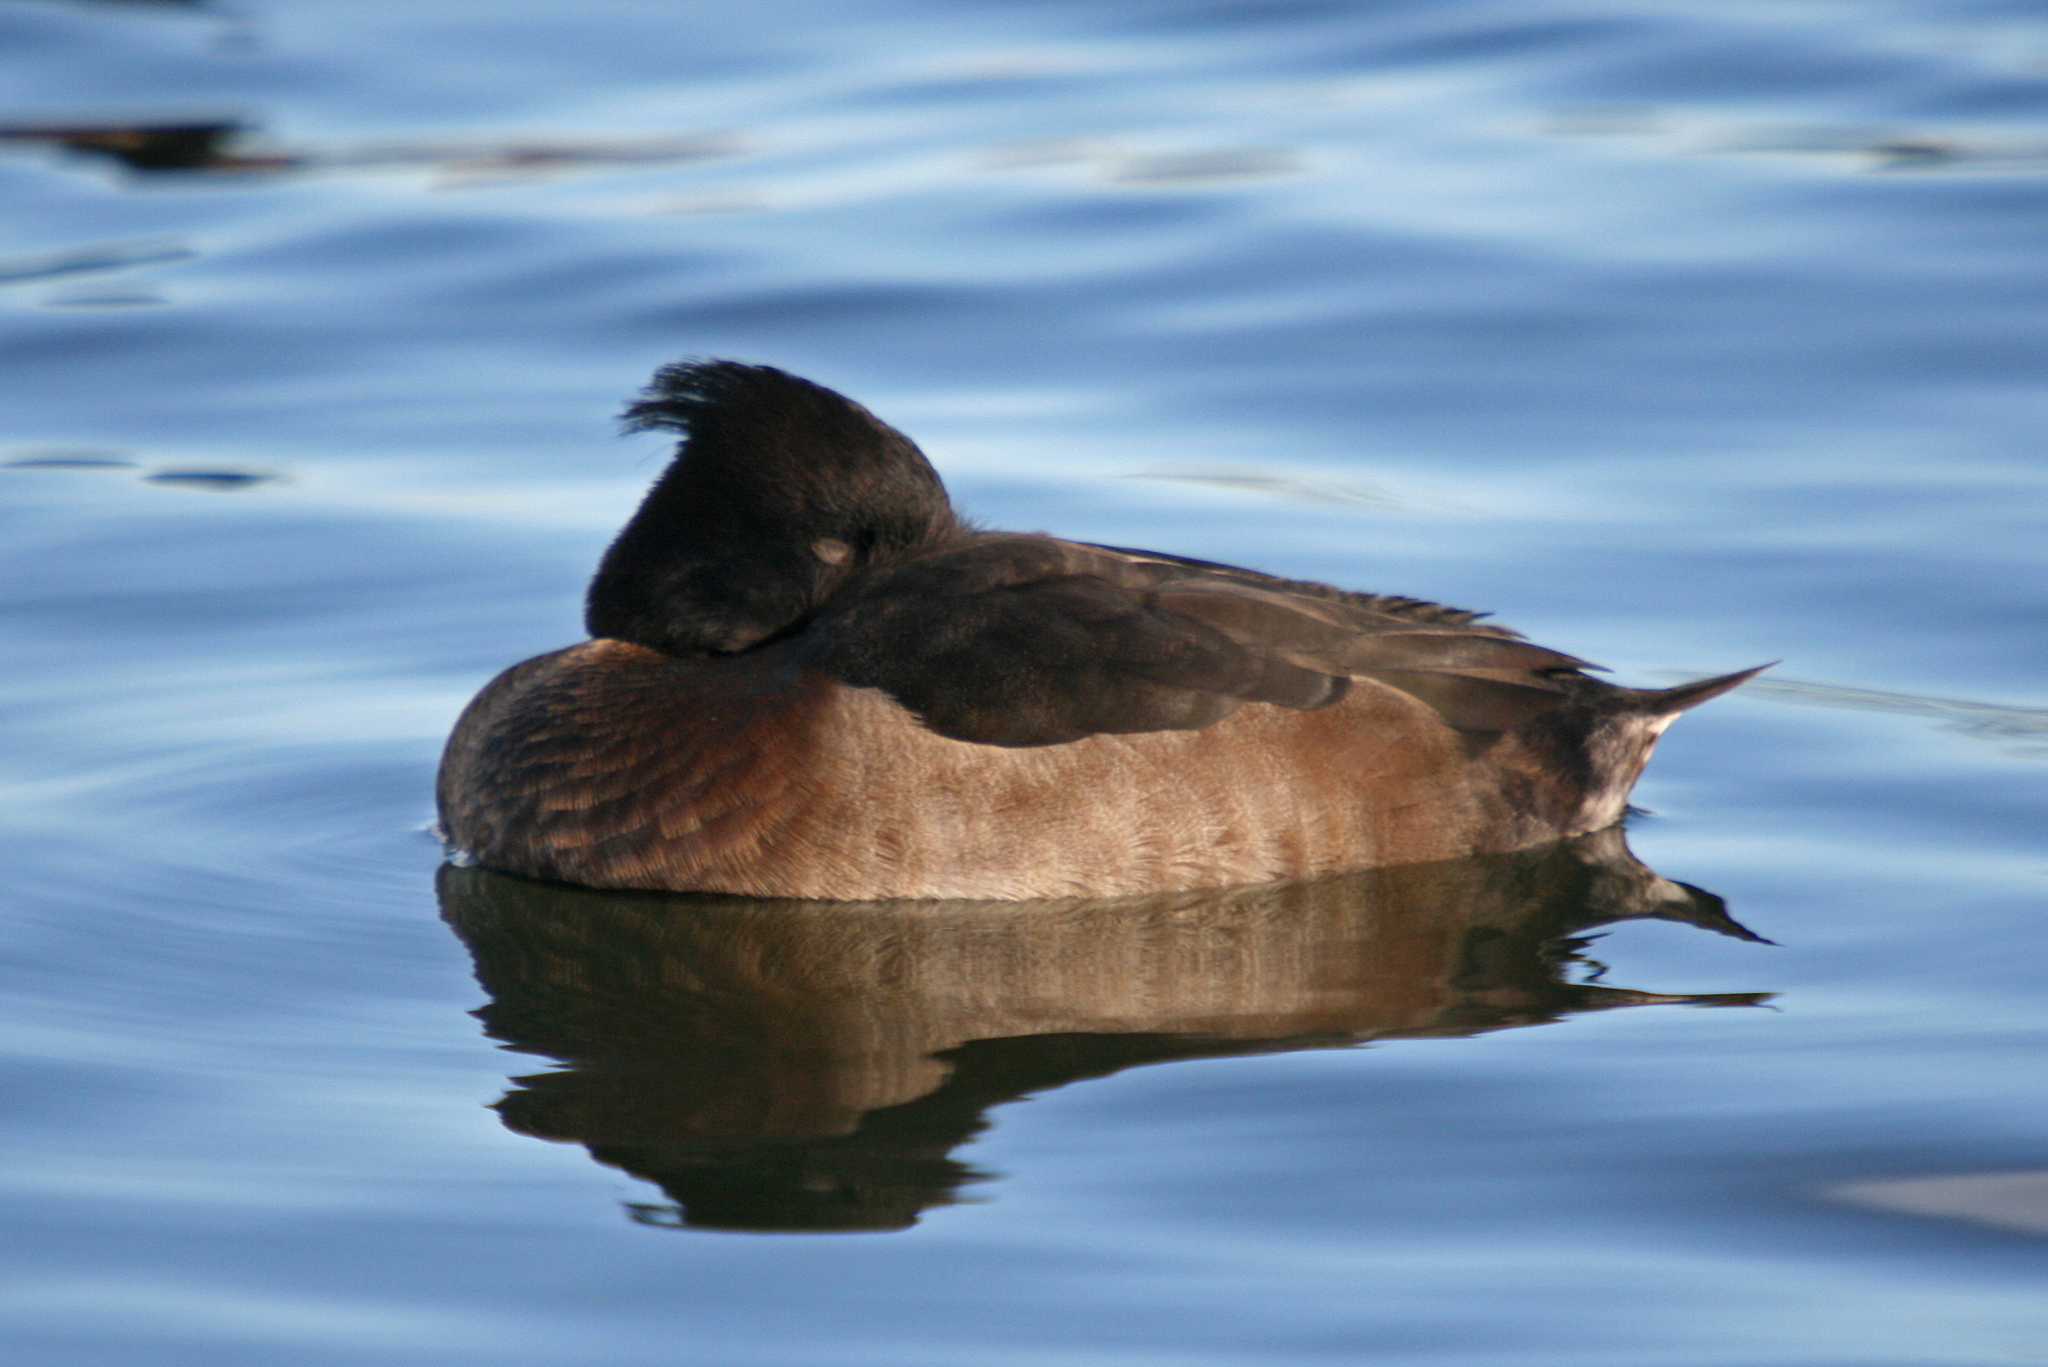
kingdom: Animalia
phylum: Chordata
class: Aves
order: Anseriformes
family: Anatidae
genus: Aythya
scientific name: Aythya fuligula
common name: Tufted duck
